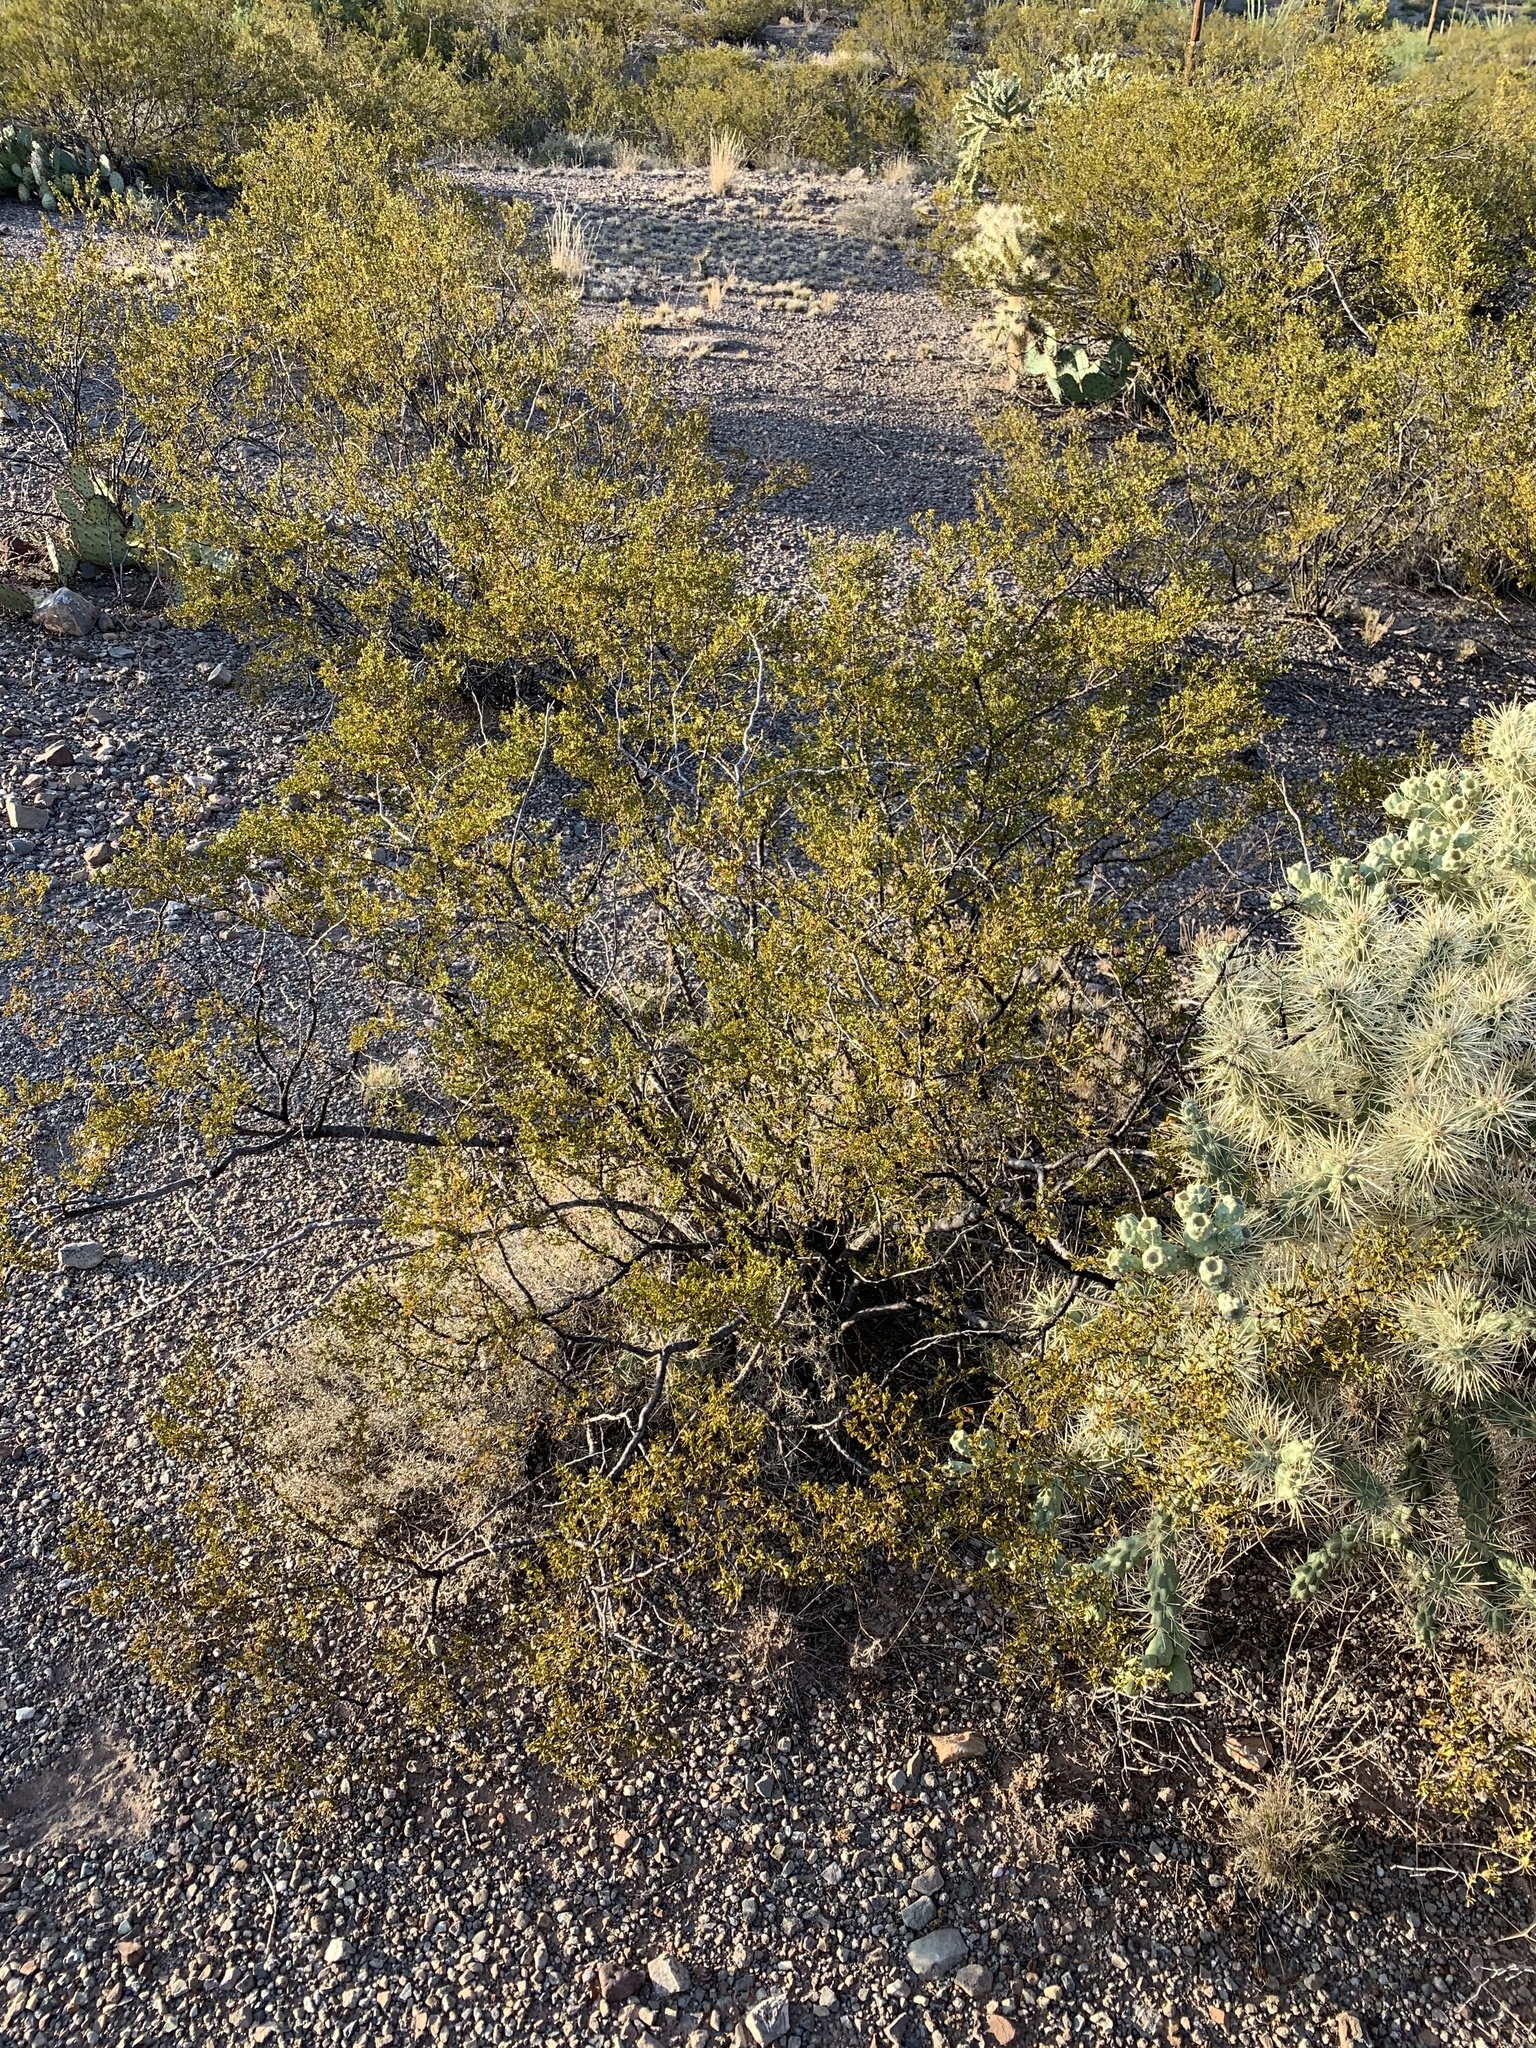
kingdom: Plantae
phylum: Tracheophyta
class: Magnoliopsida
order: Zygophyllales
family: Zygophyllaceae
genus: Larrea
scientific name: Larrea tridentata
